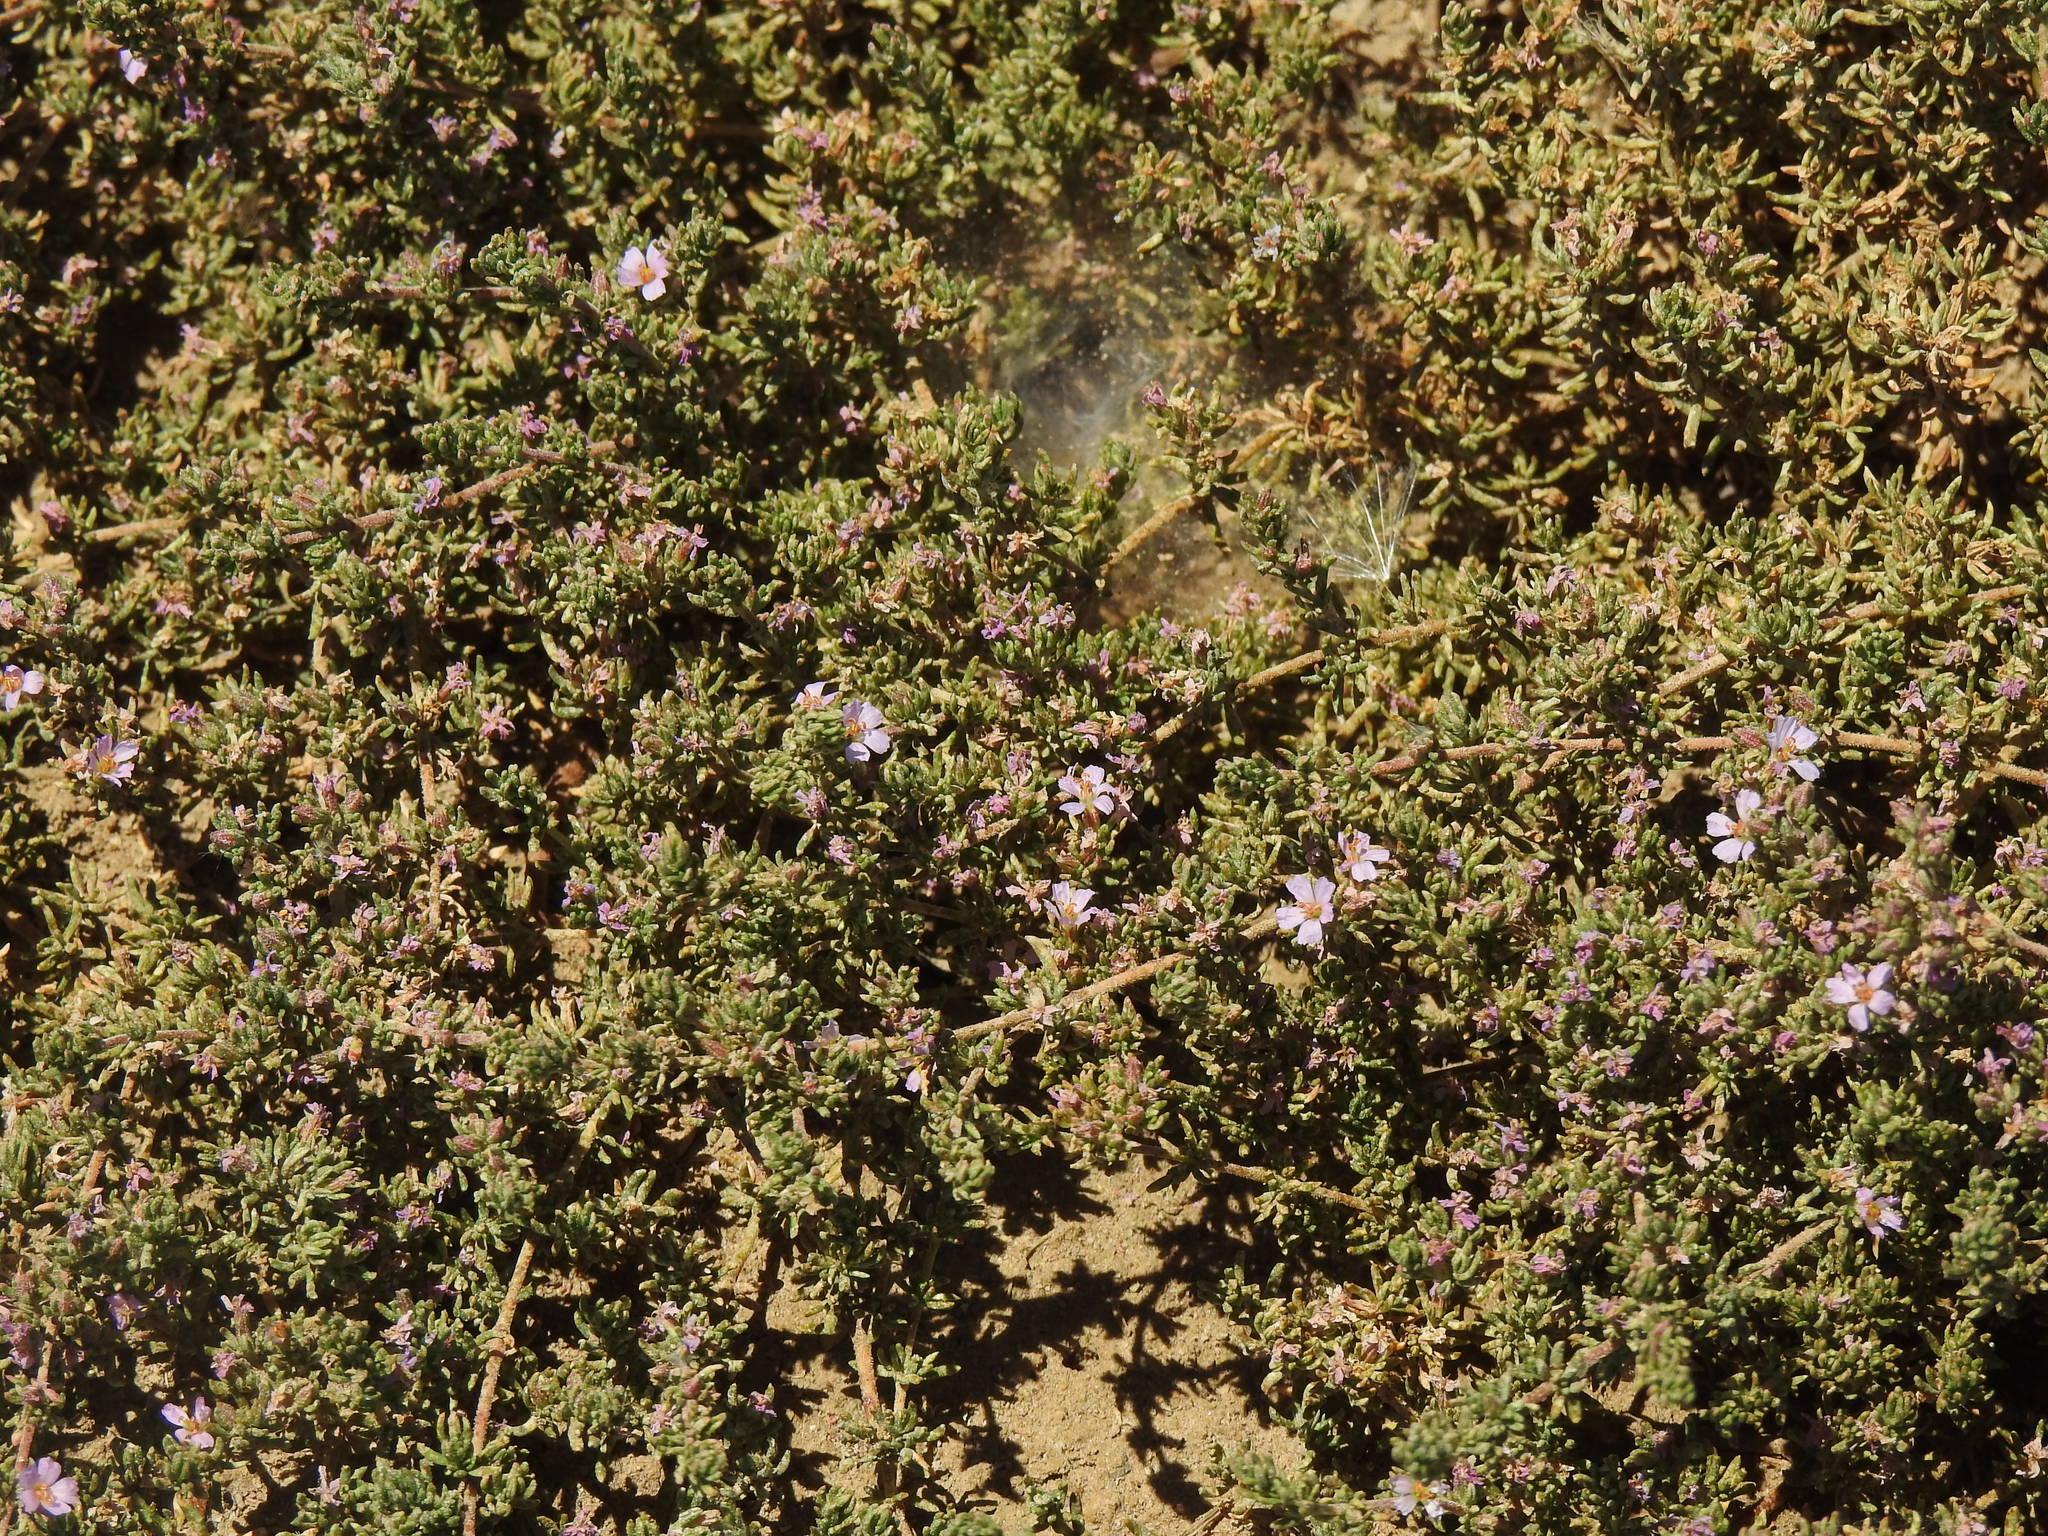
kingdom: Plantae
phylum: Tracheophyta
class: Magnoliopsida
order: Caryophyllales
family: Frankeniaceae
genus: Frankenia
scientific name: Frankenia laevis
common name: Sea-heath
